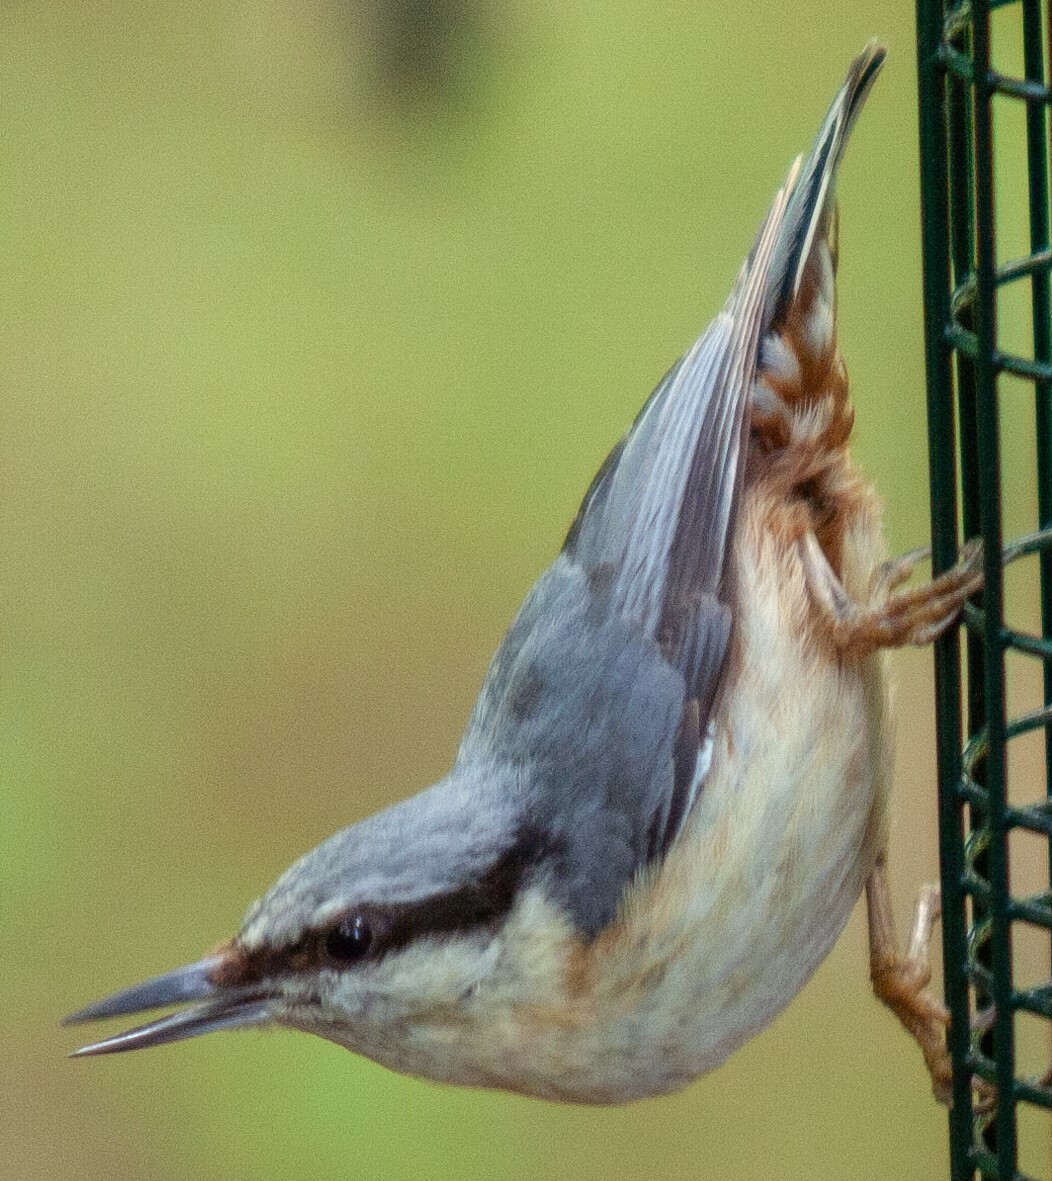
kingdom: Animalia
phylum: Chordata
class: Aves
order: Passeriformes
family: Sittidae
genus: Sitta
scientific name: Sitta europaea
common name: Eurasian nuthatch
